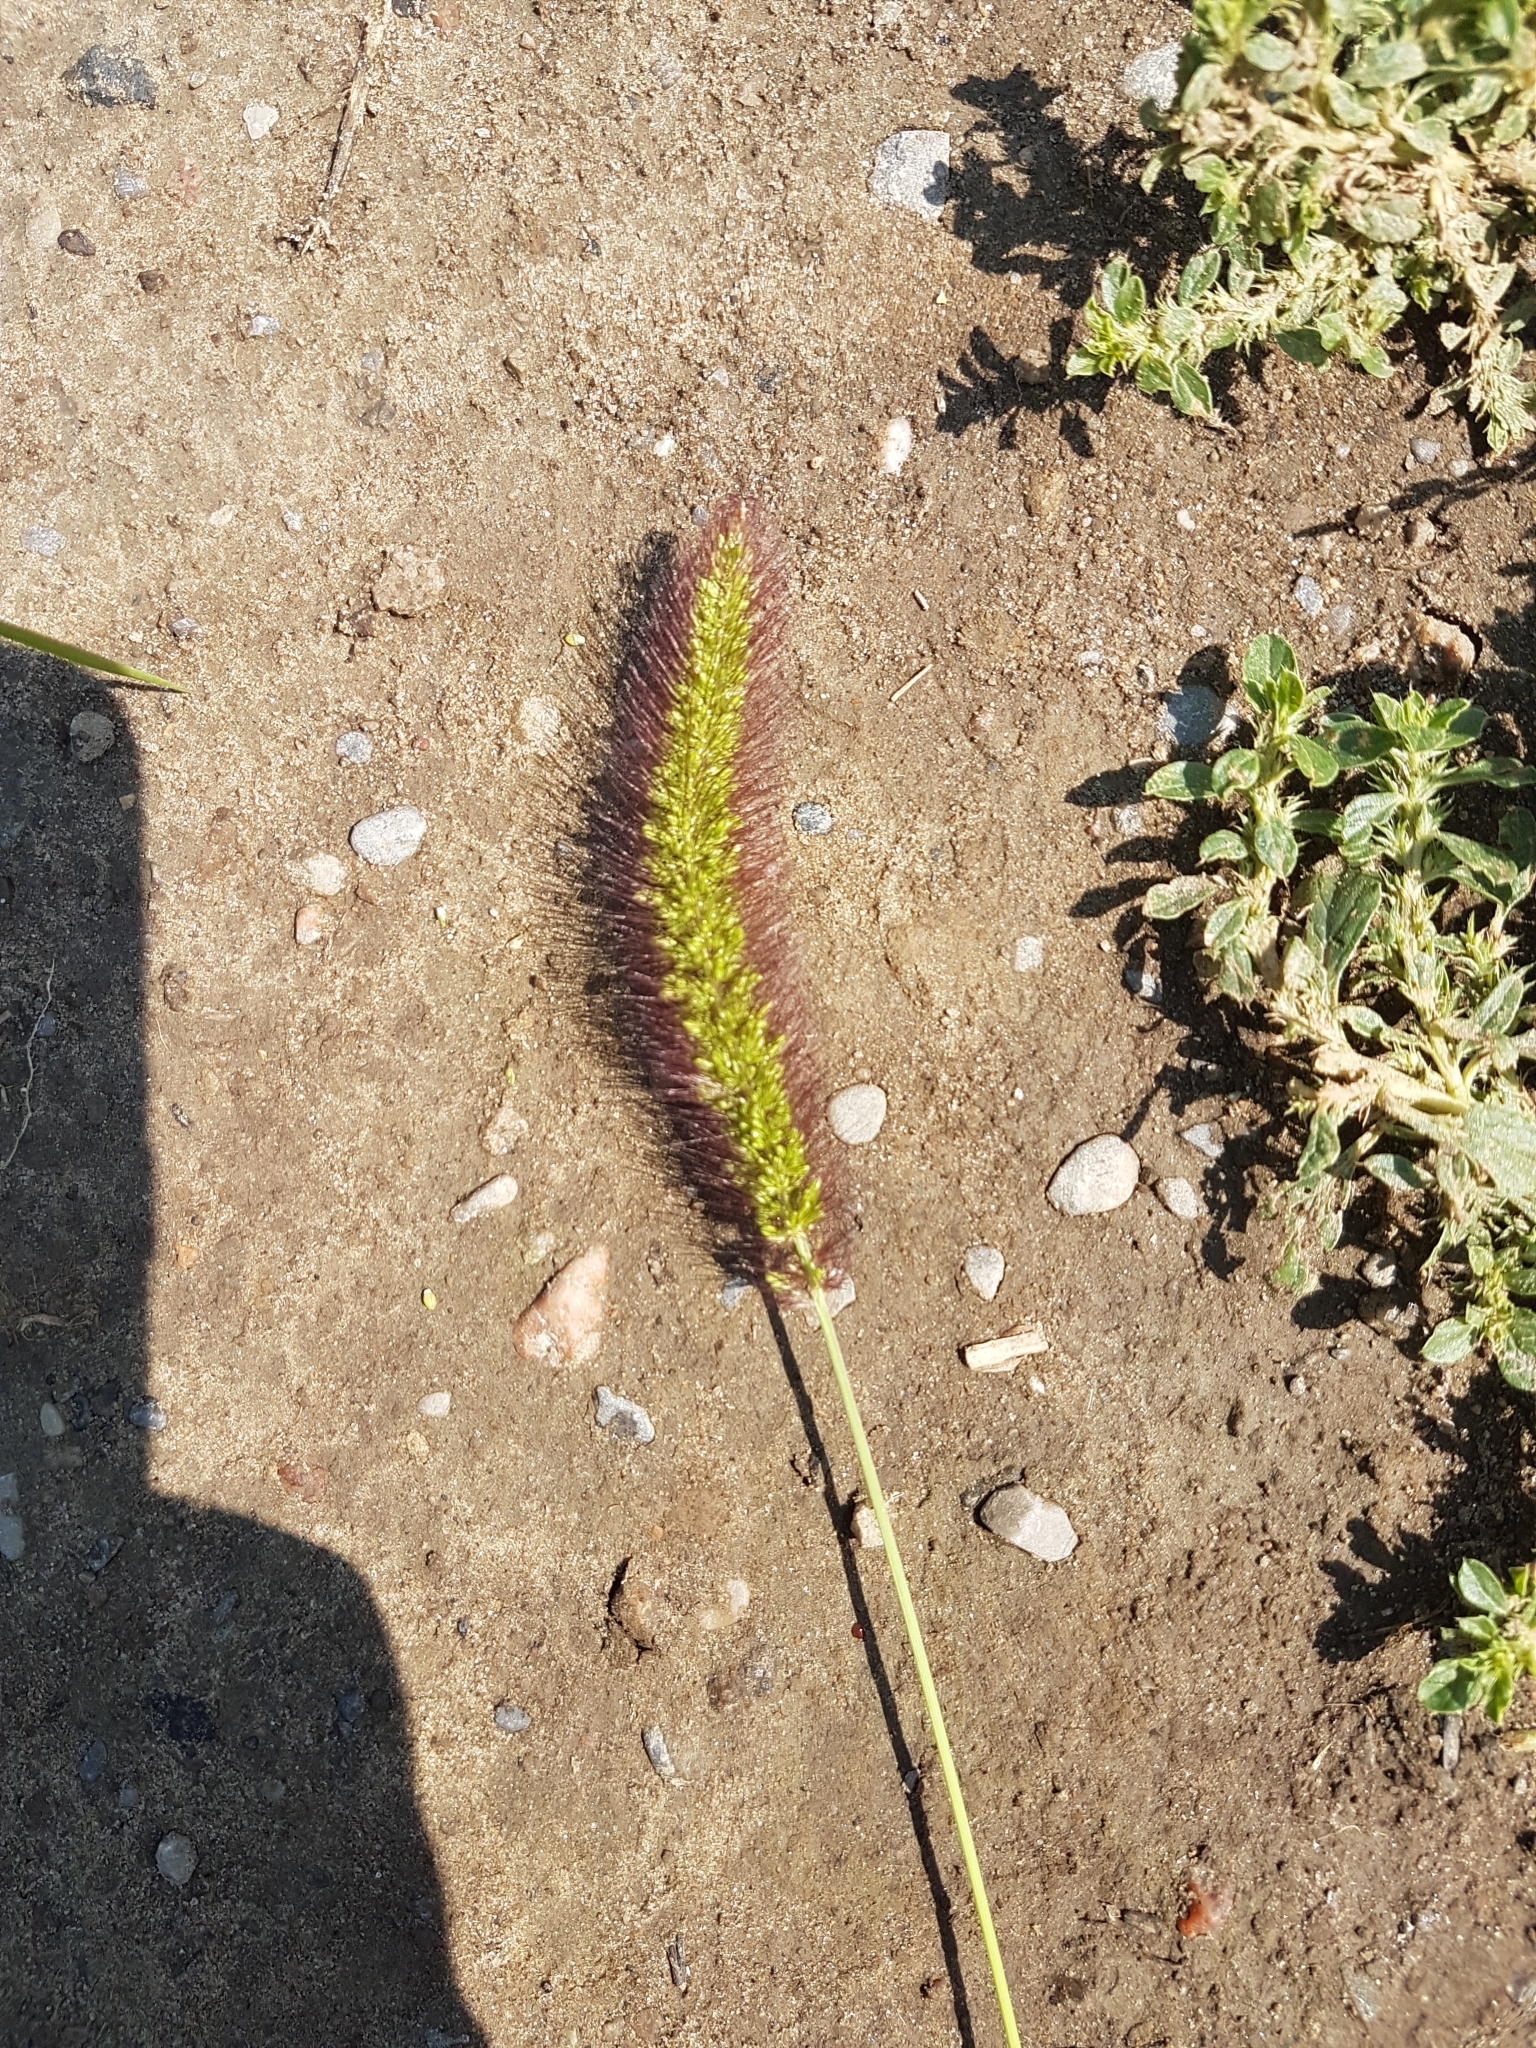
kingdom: Plantae
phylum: Tracheophyta
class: Liliopsida
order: Poales
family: Poaceae
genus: Setaria
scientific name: Setaria viridis
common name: Green bristlegrass
